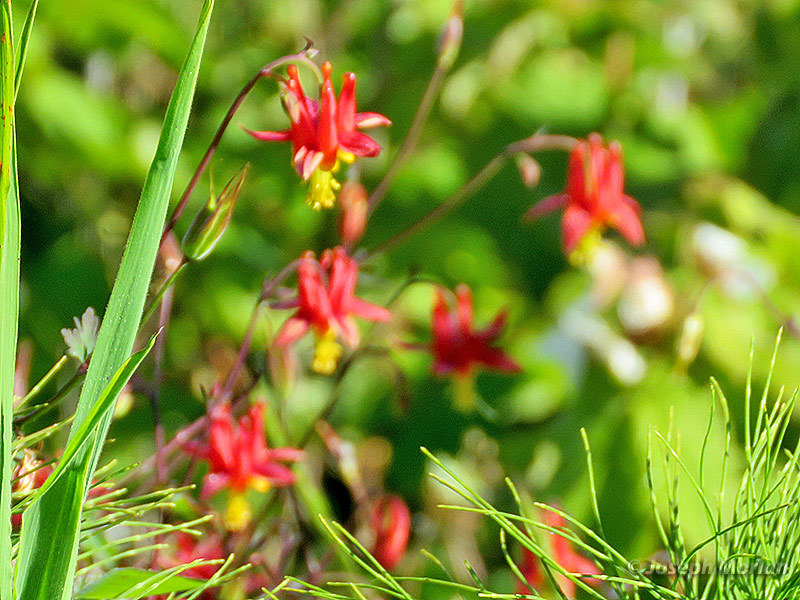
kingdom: Plantae
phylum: Tracheophyta
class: Magnoliopsida
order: Ranunculales
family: Ranunculaceae
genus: Aquilegia
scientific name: Aquilegia formosa
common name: Sitka columbine
